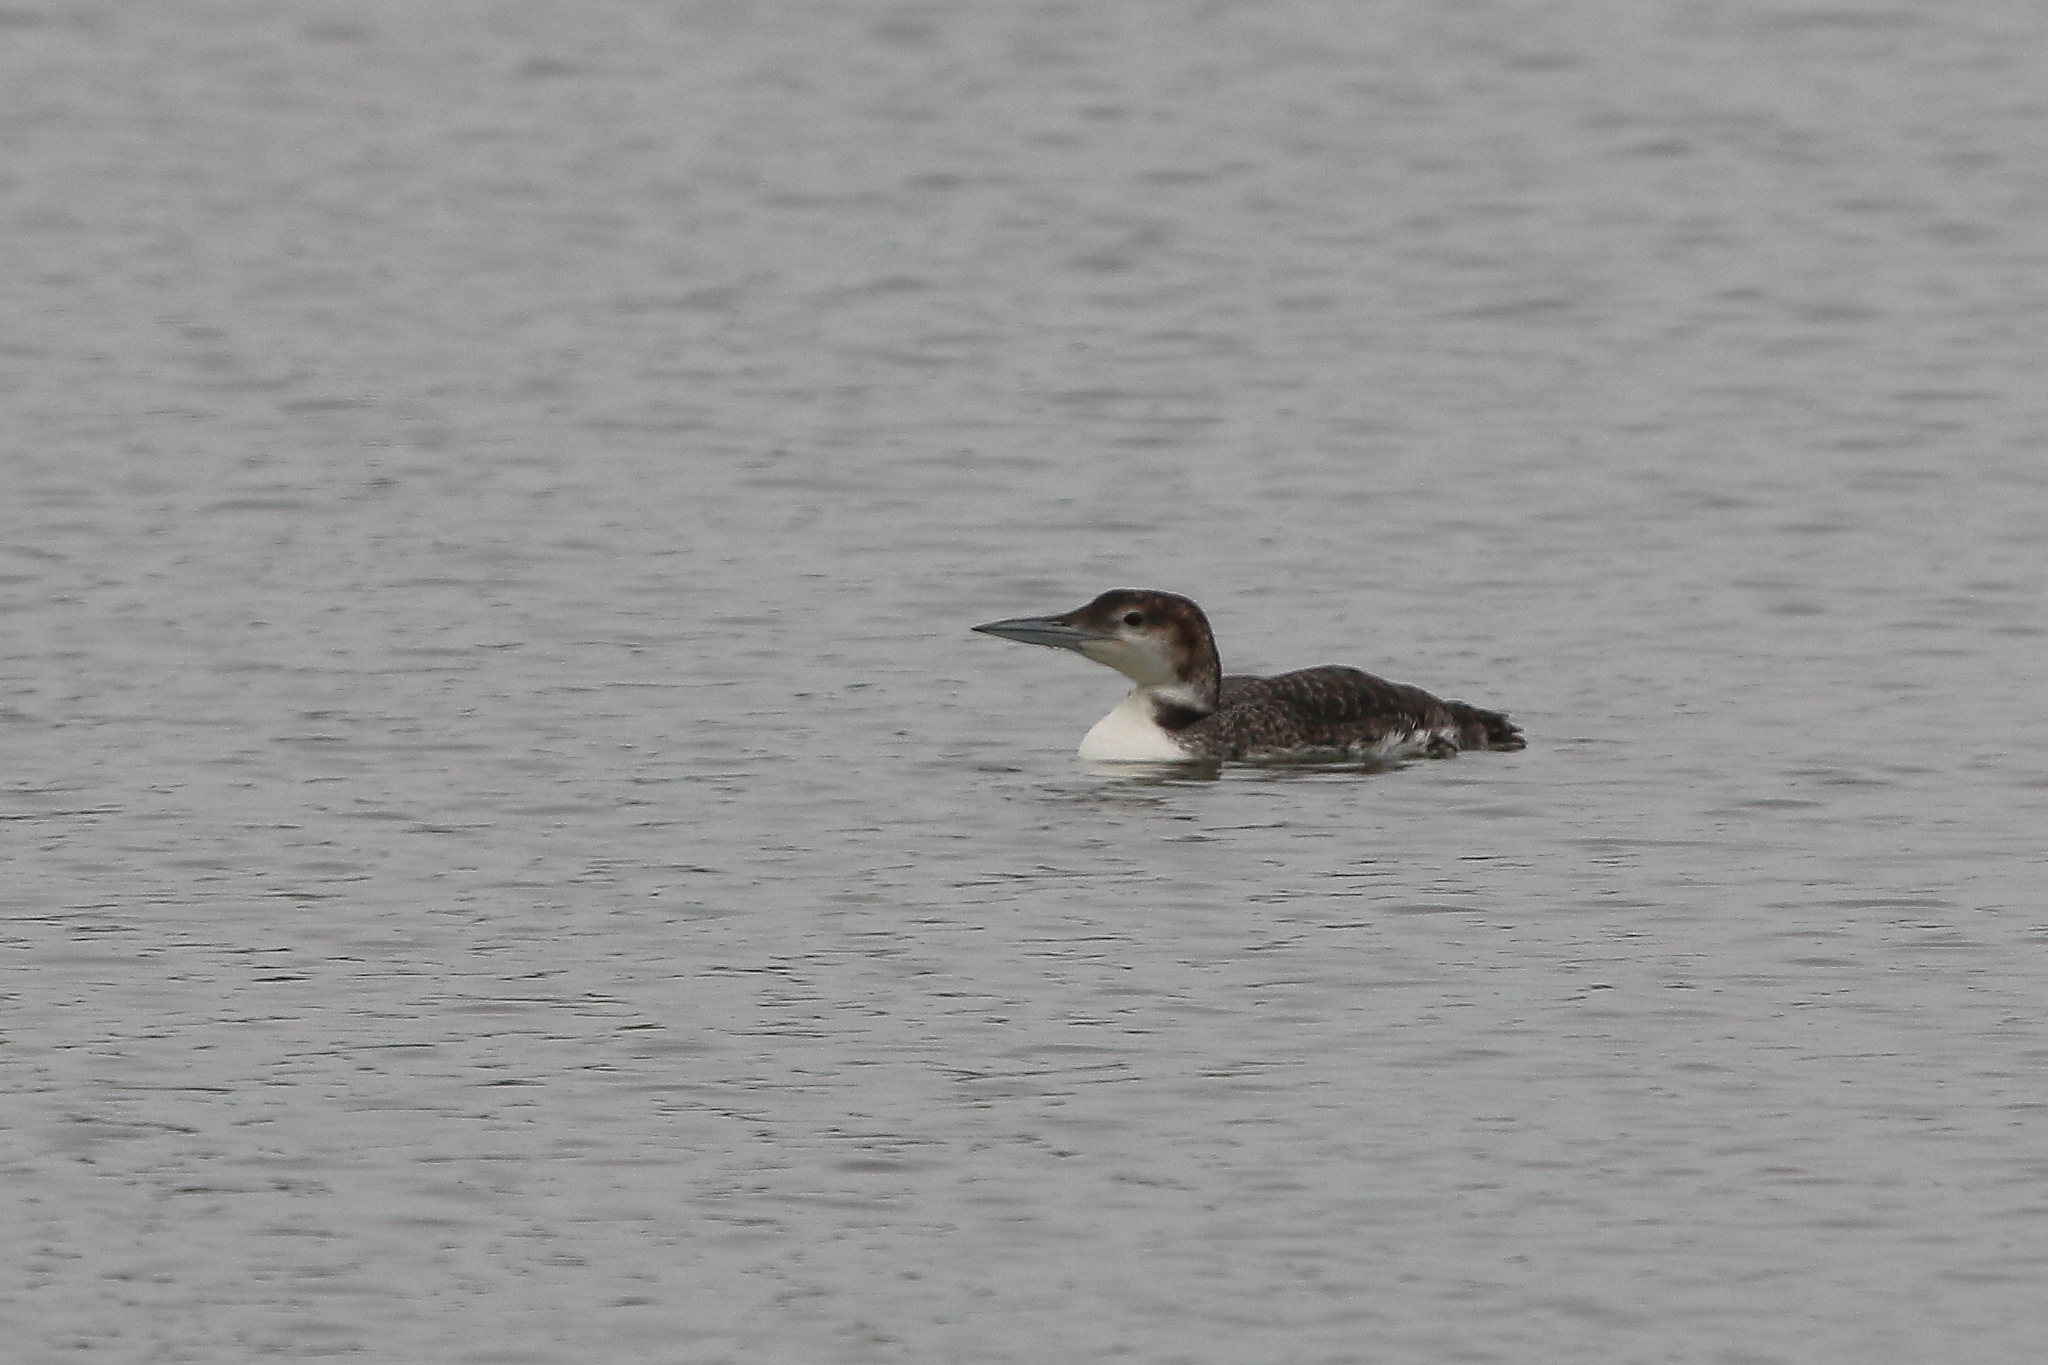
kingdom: Animalia
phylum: Chordata
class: Aves
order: Gaviiformes
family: Gaviidae
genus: Gavia
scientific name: Gavia immer
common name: Common loon
